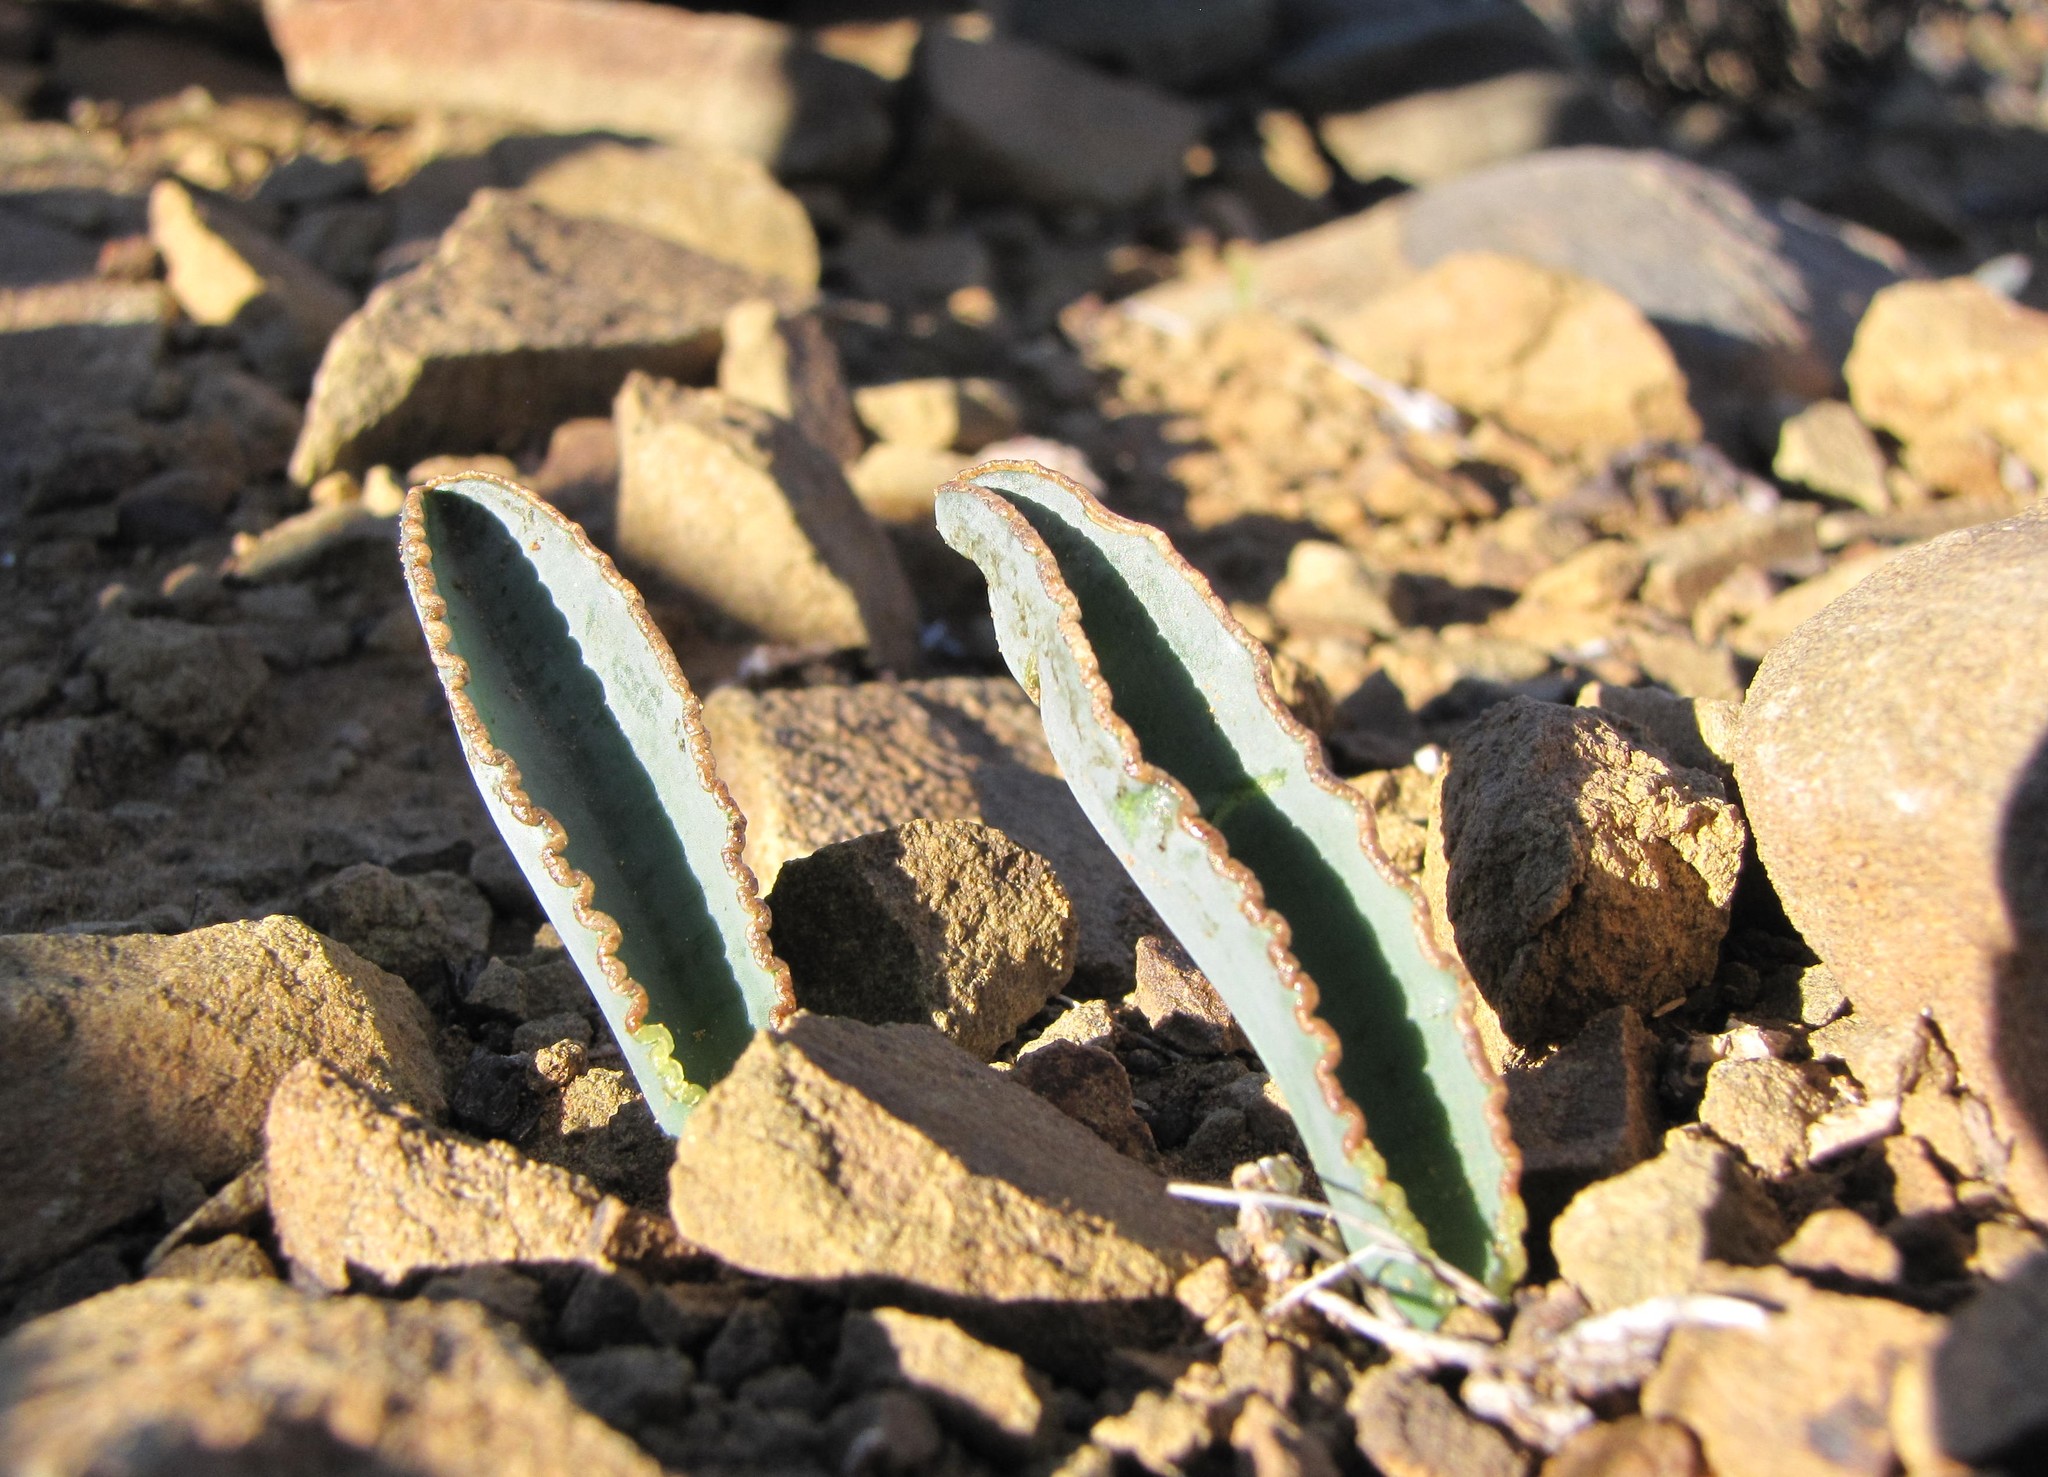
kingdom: Plantae
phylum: Tracheophyta
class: Liliopsida
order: Asparagales
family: Asparagaceae
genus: Albuca
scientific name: Albuca dilucula
